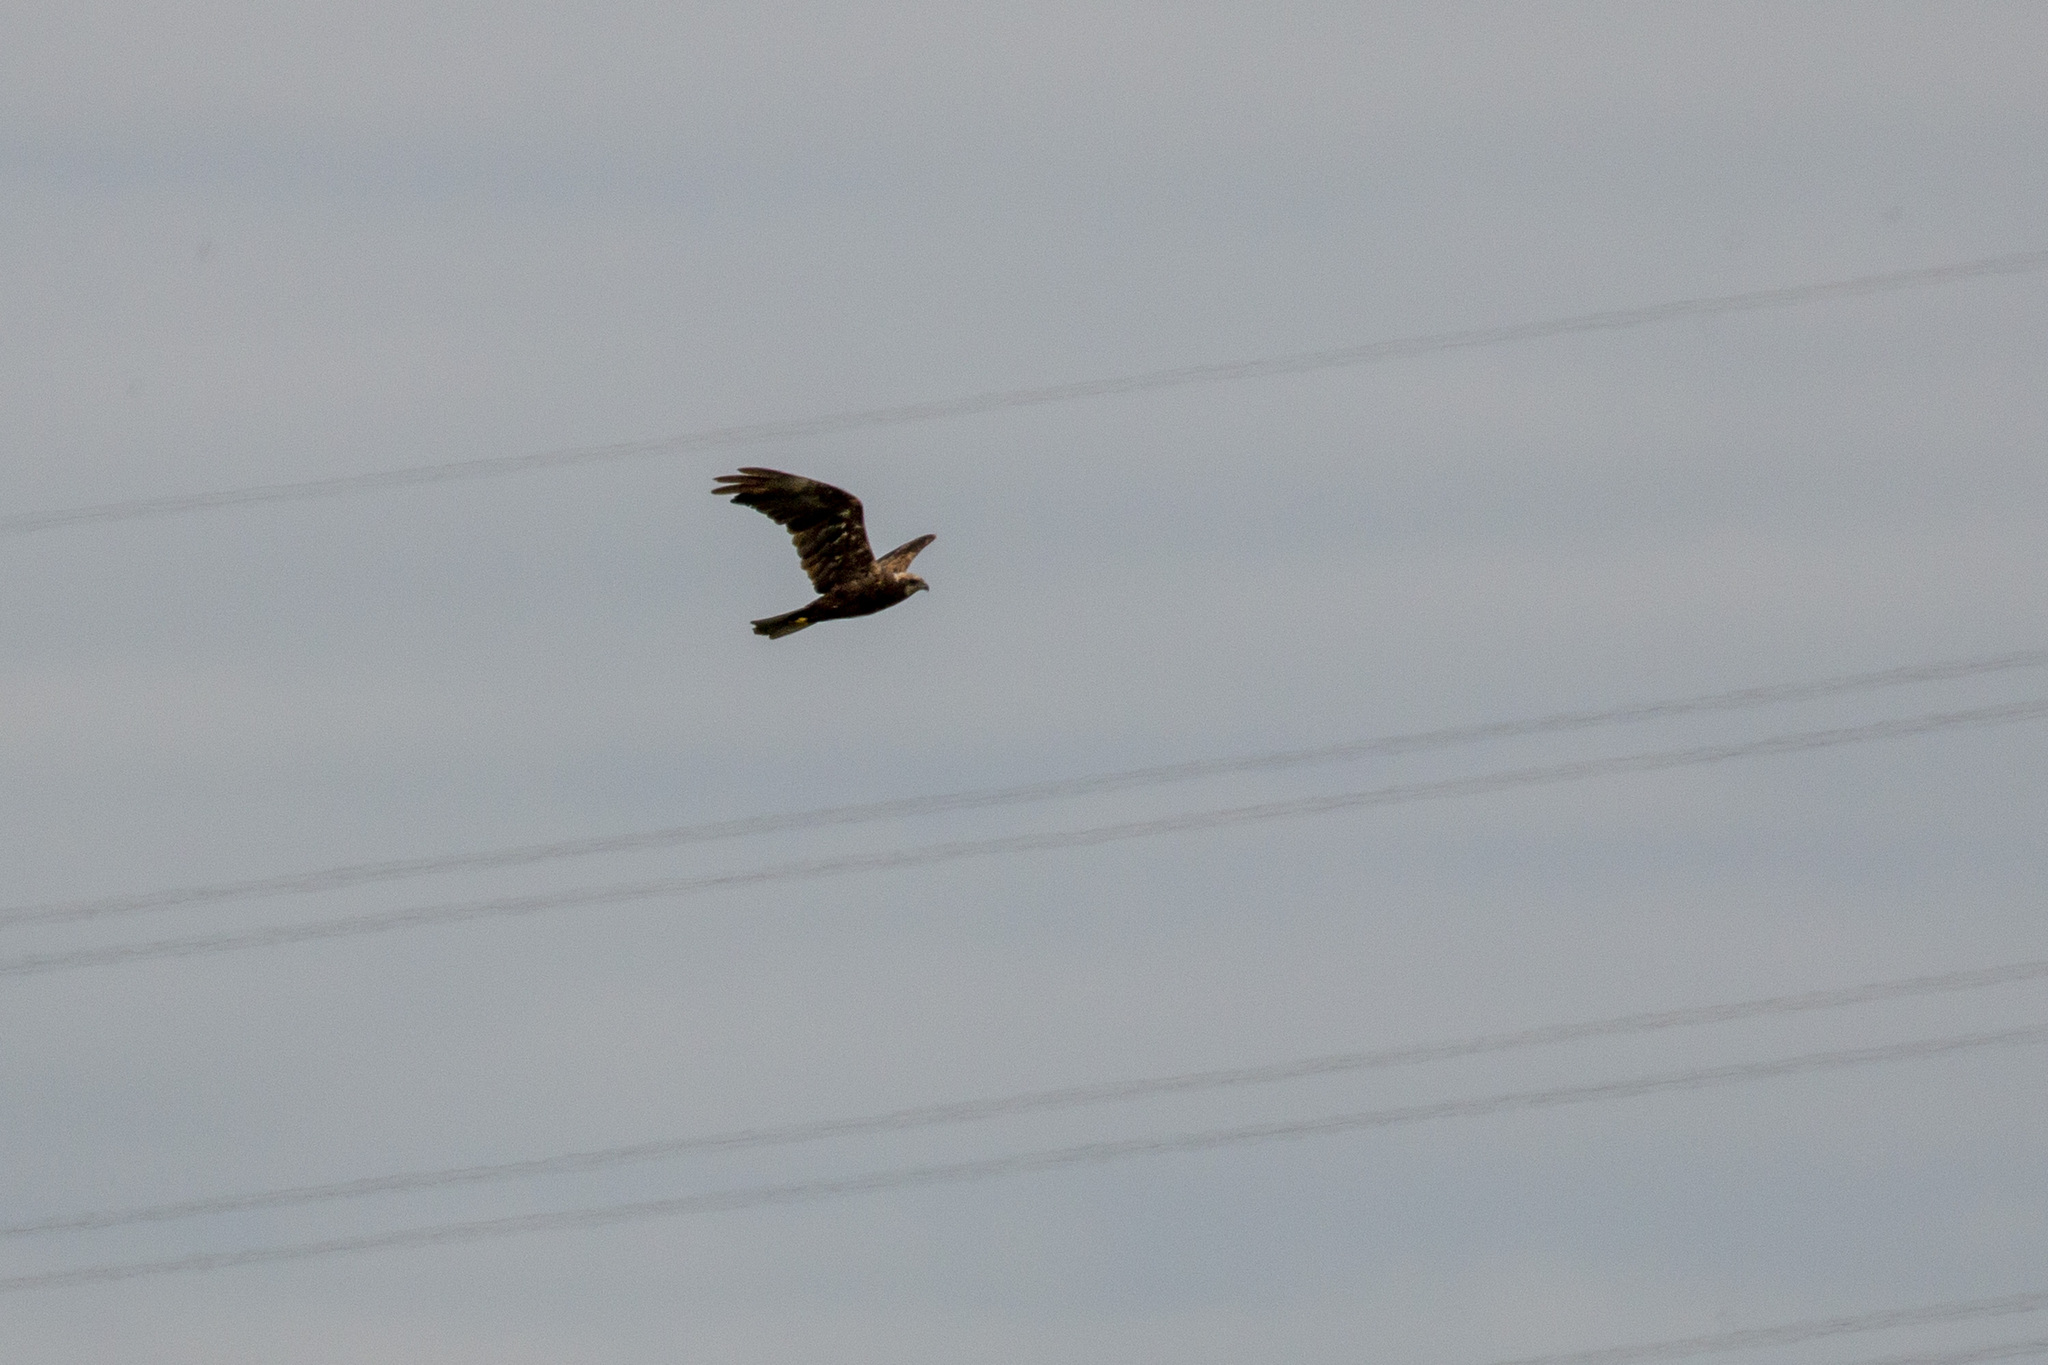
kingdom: Animalia
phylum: Chordata
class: Aves
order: Accipitriformes
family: Accipitridae
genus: Circus
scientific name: Circus aeruginosus
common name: Western marsh harrier
